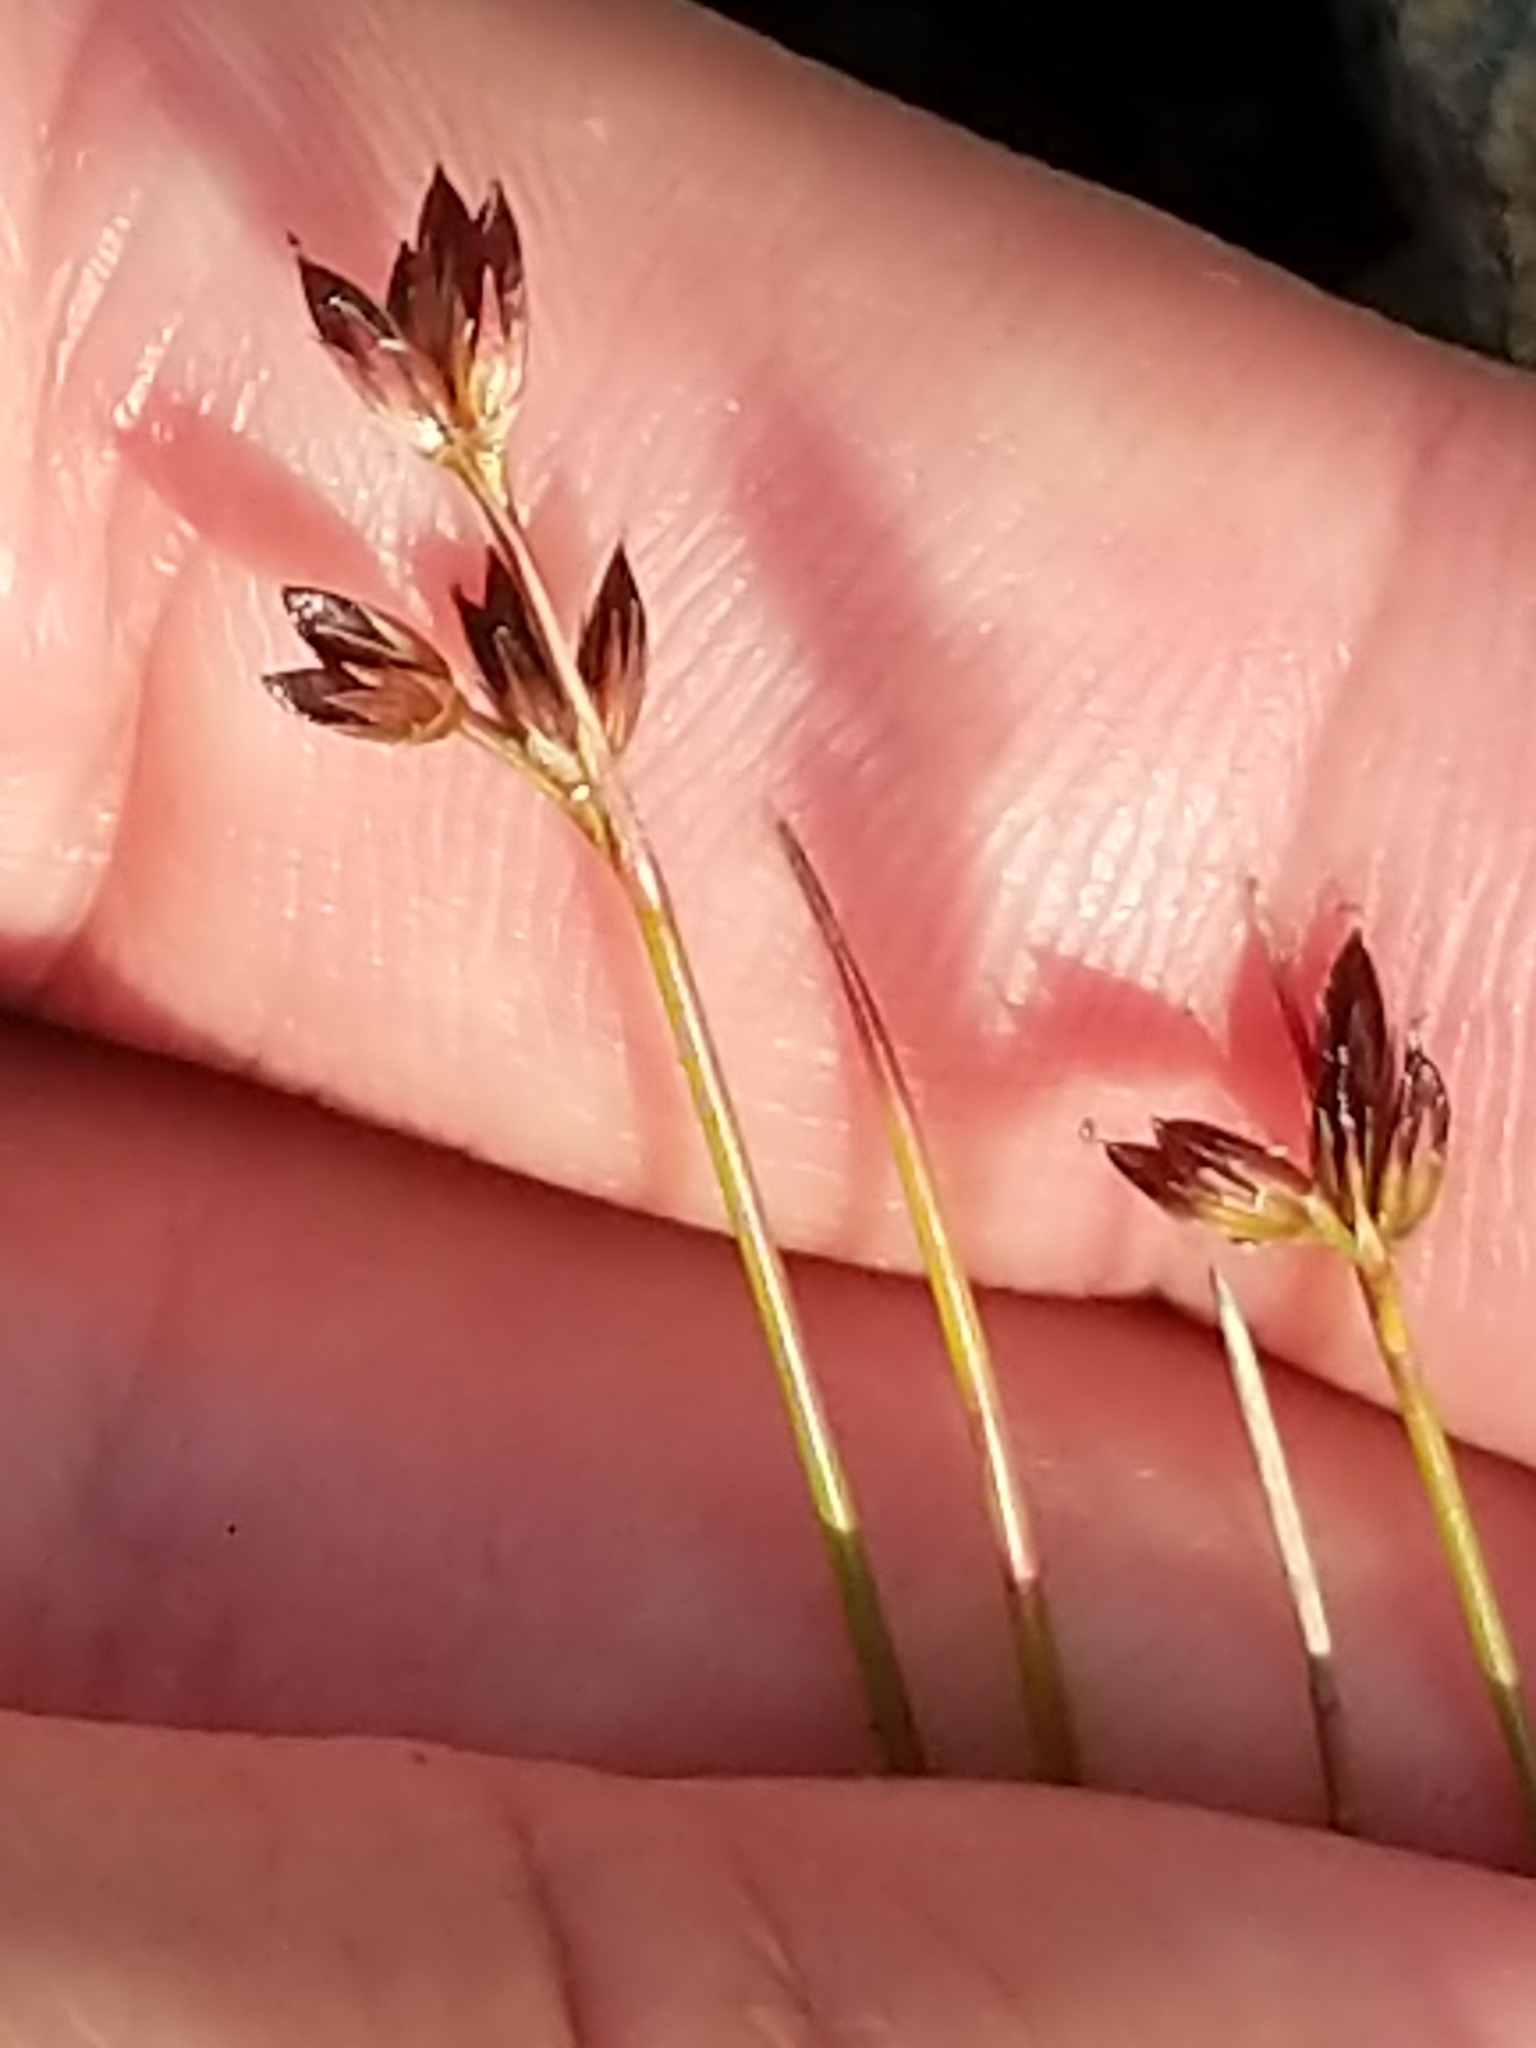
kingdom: Plantae
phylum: Tracheophyta
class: Liliopsida
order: Poales
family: Juncaceae
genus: Juncus
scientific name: Juncus tweedyi
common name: Narrow-panicled rush
